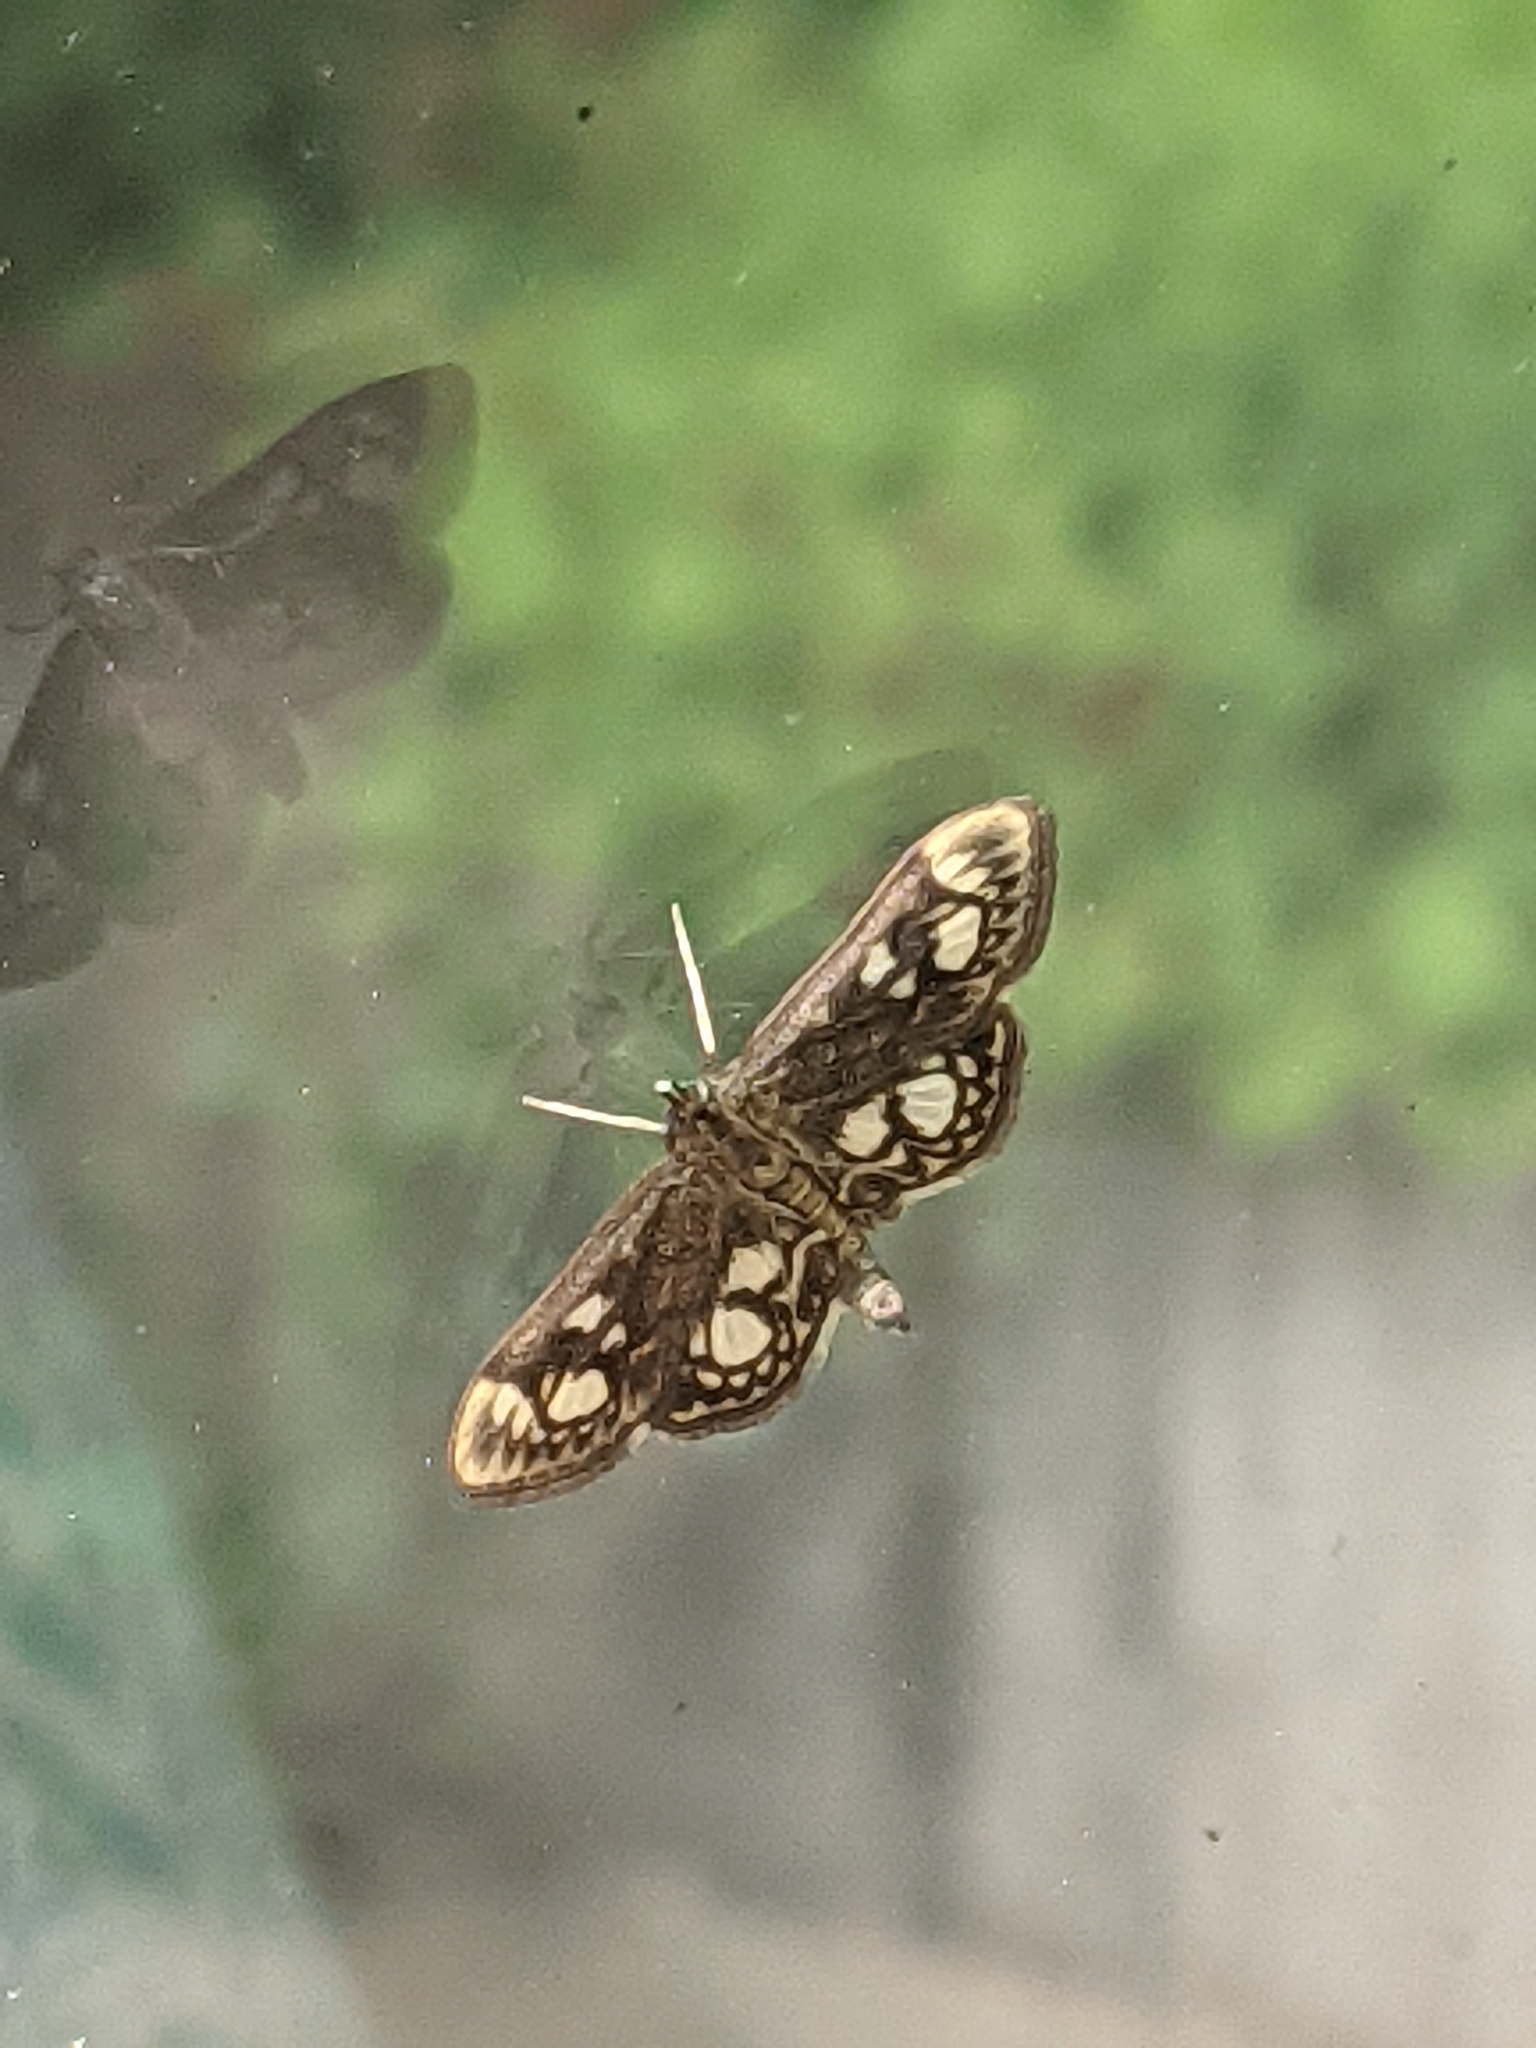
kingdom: Animalia
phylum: Arthropoda
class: Insecta
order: Lepidoptera
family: Crambidae
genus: Anania
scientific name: Anania coronata
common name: Elder pearl
